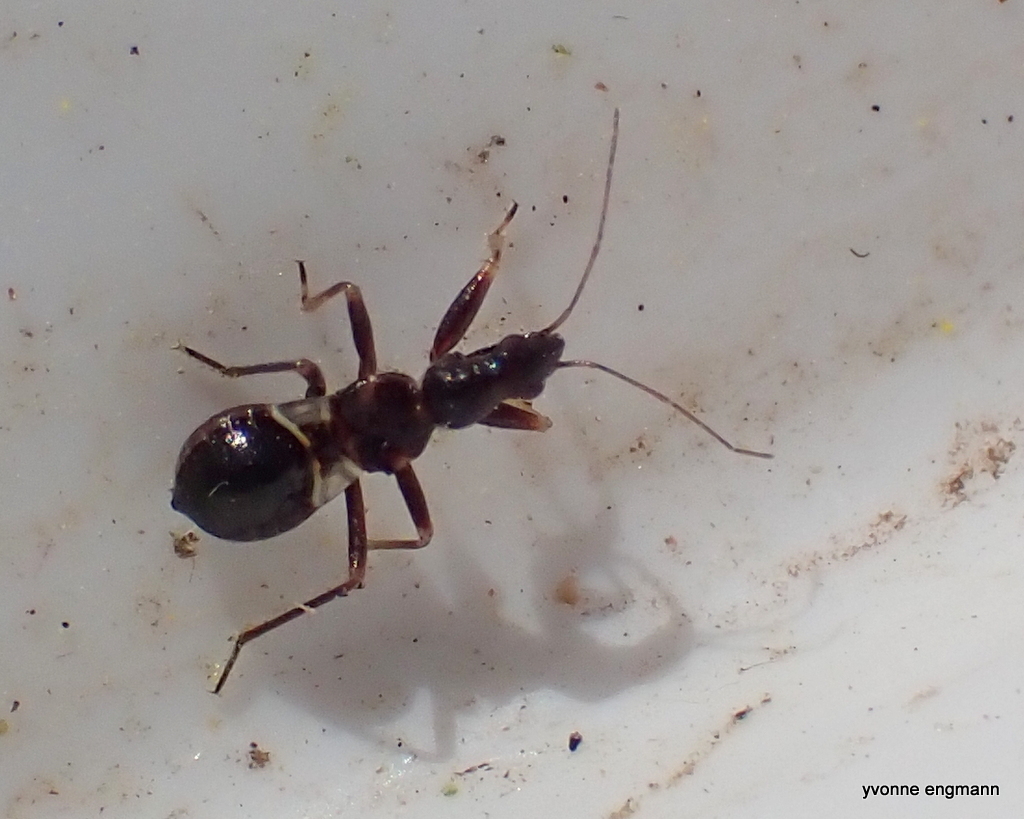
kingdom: Animalia
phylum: Arthropoda
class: Insecta
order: Hemiptera
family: Nabidae
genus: Himacerus
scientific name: Himacerus mirmicoides
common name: Ant damsel bug
